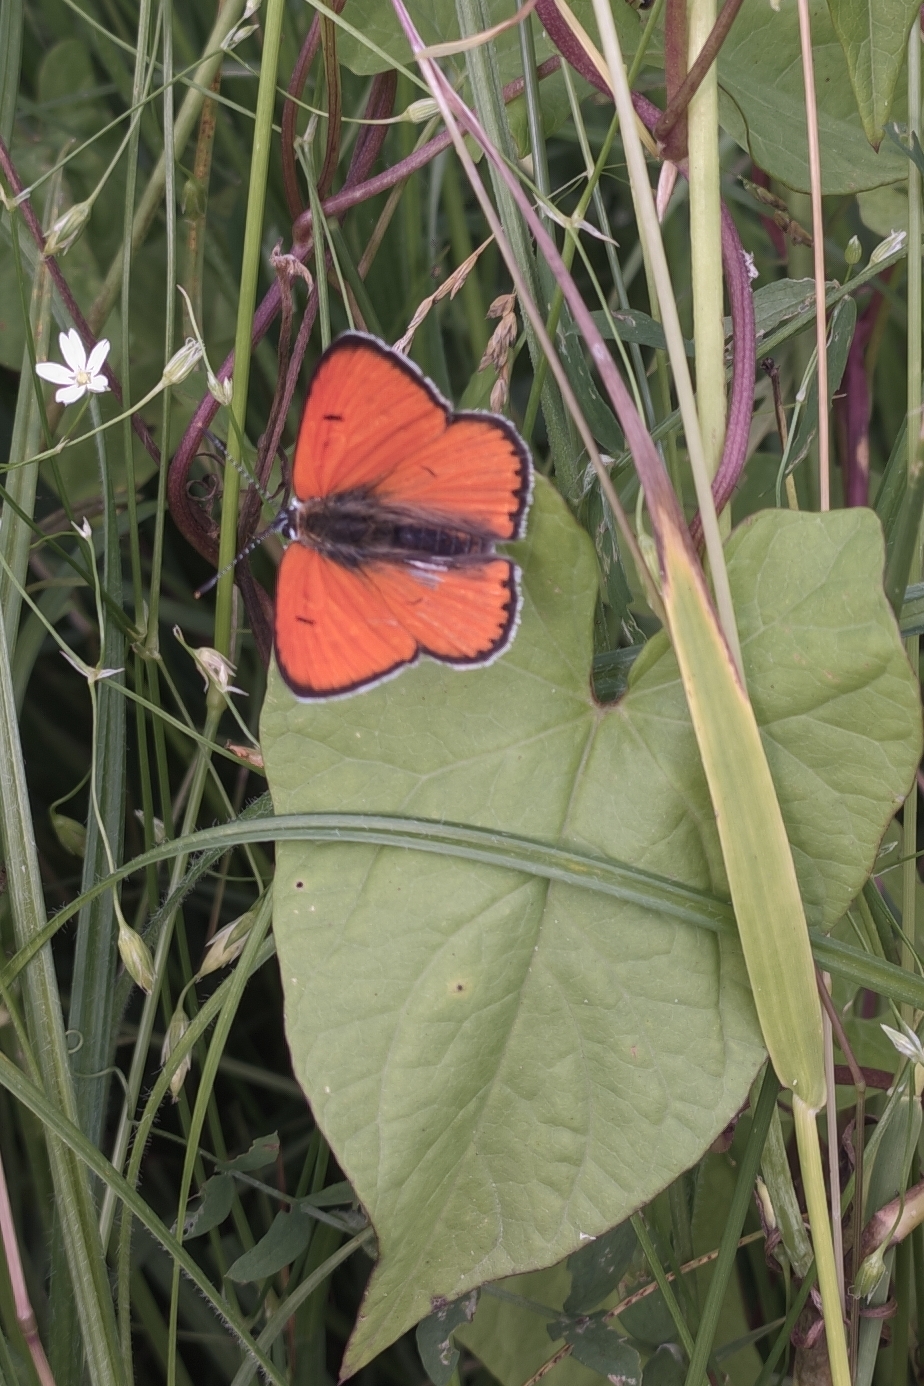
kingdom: Animalia
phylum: Arthropoda
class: Insecta
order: Lepidoptera
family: Lycaenidae
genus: Lycaena
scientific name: Lycaena dispar
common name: Large copper
